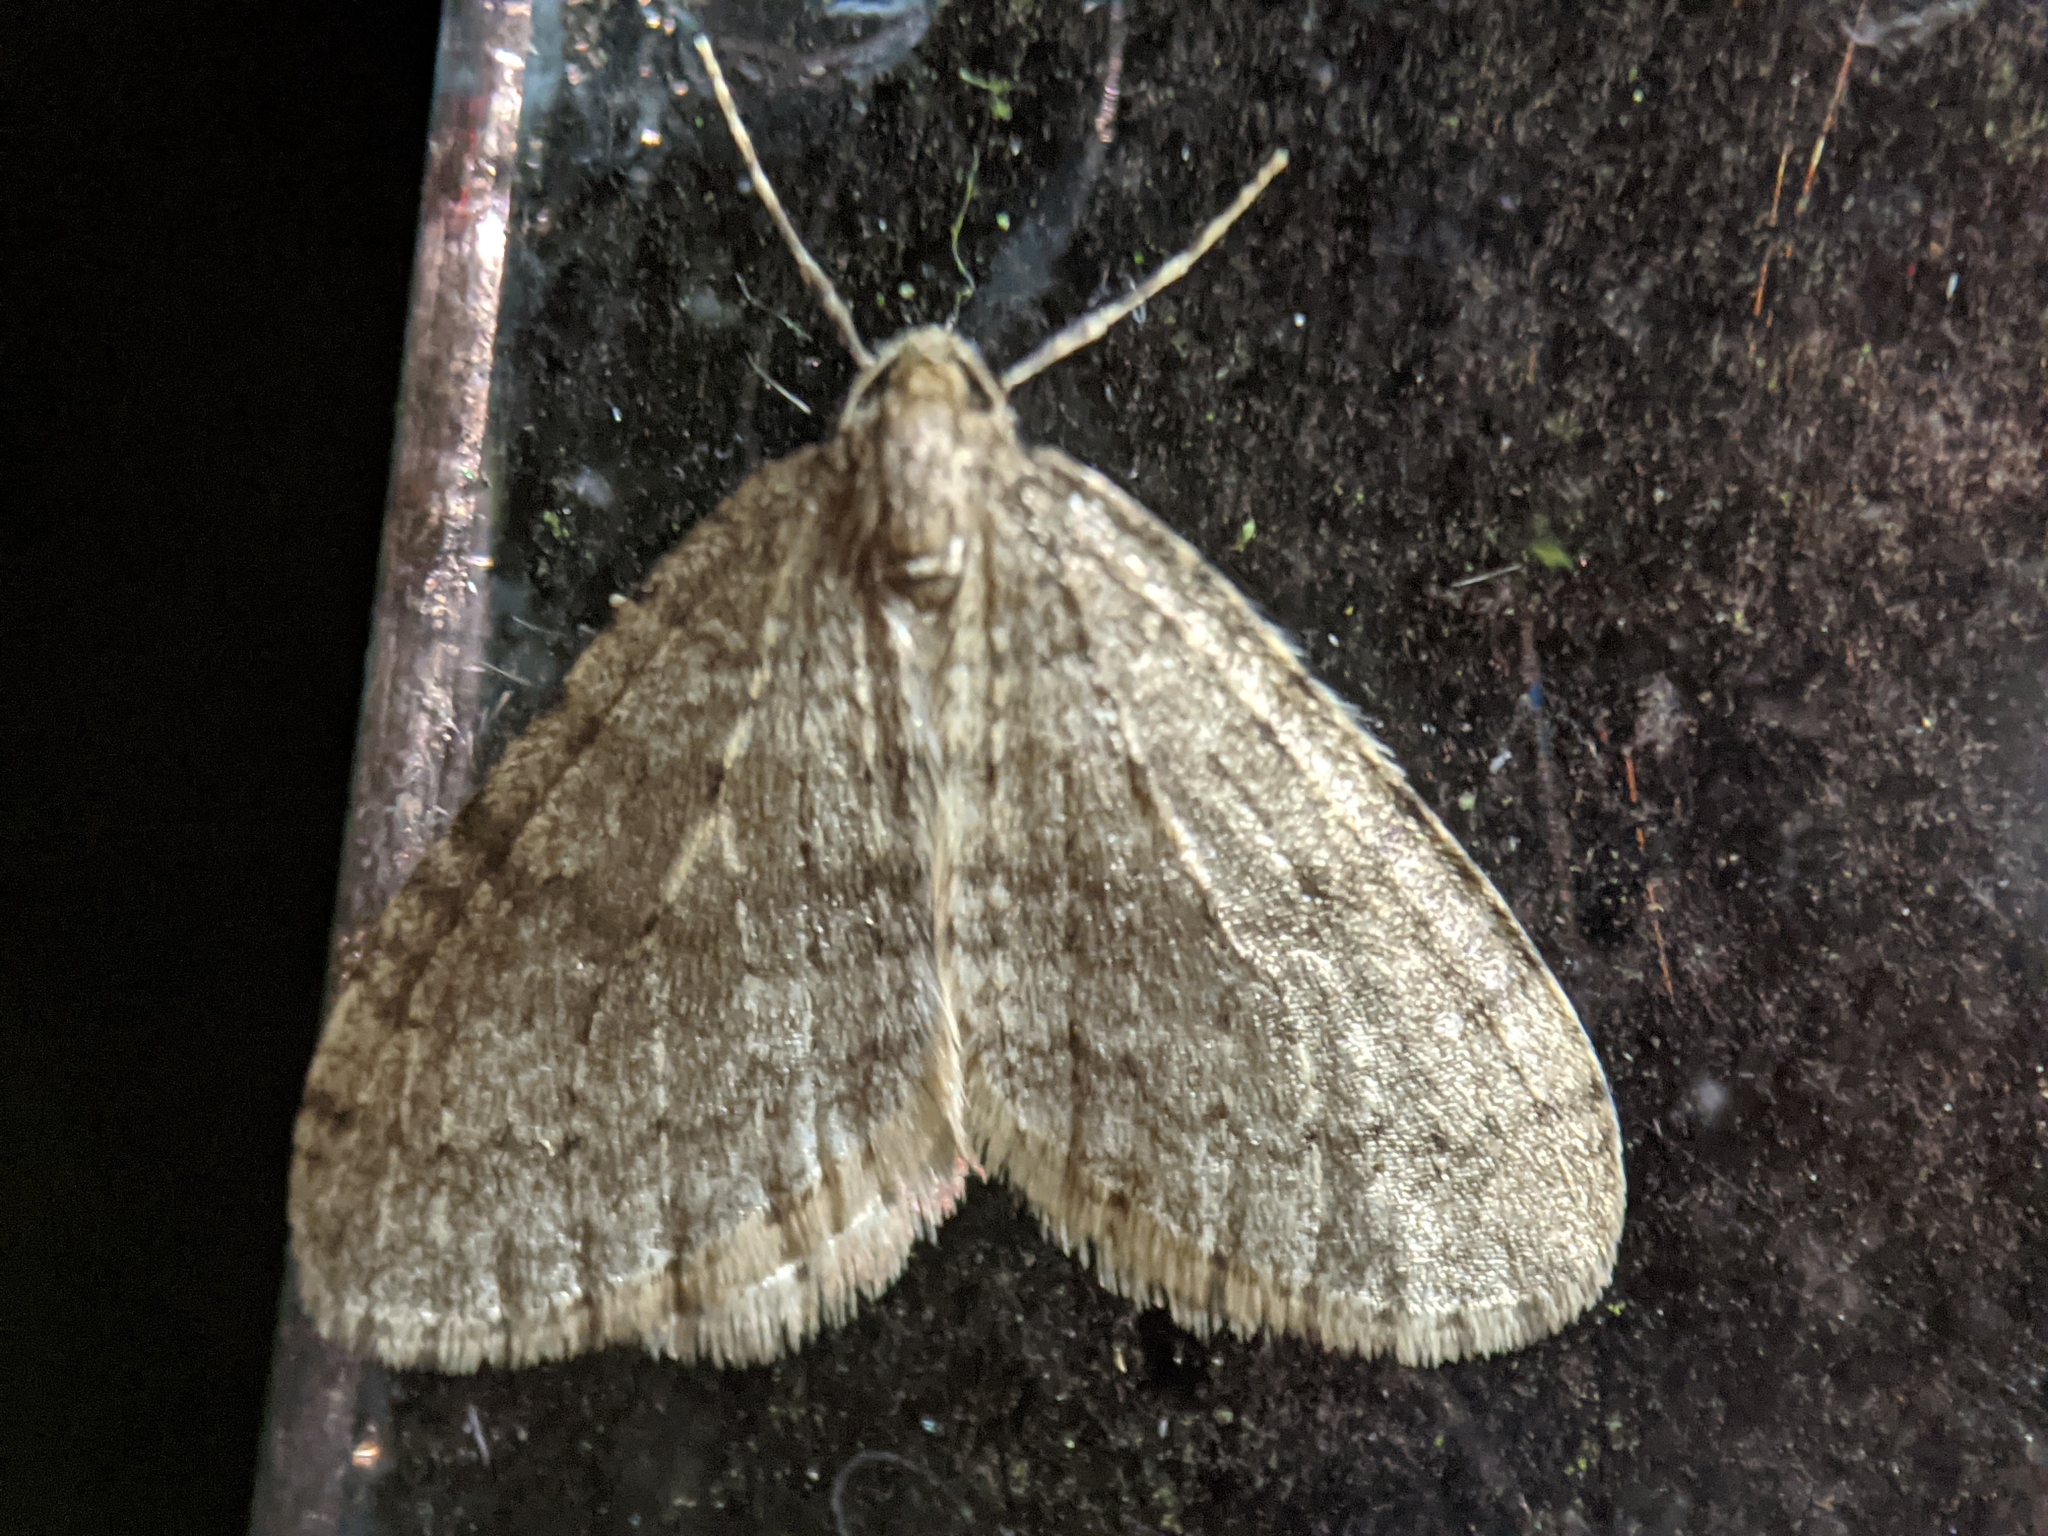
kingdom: Animalia
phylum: Arthropoda
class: Insecta
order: Lepidoptera
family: Geometridae
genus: Operophtera
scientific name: Operophtera brumata
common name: Winter moth
